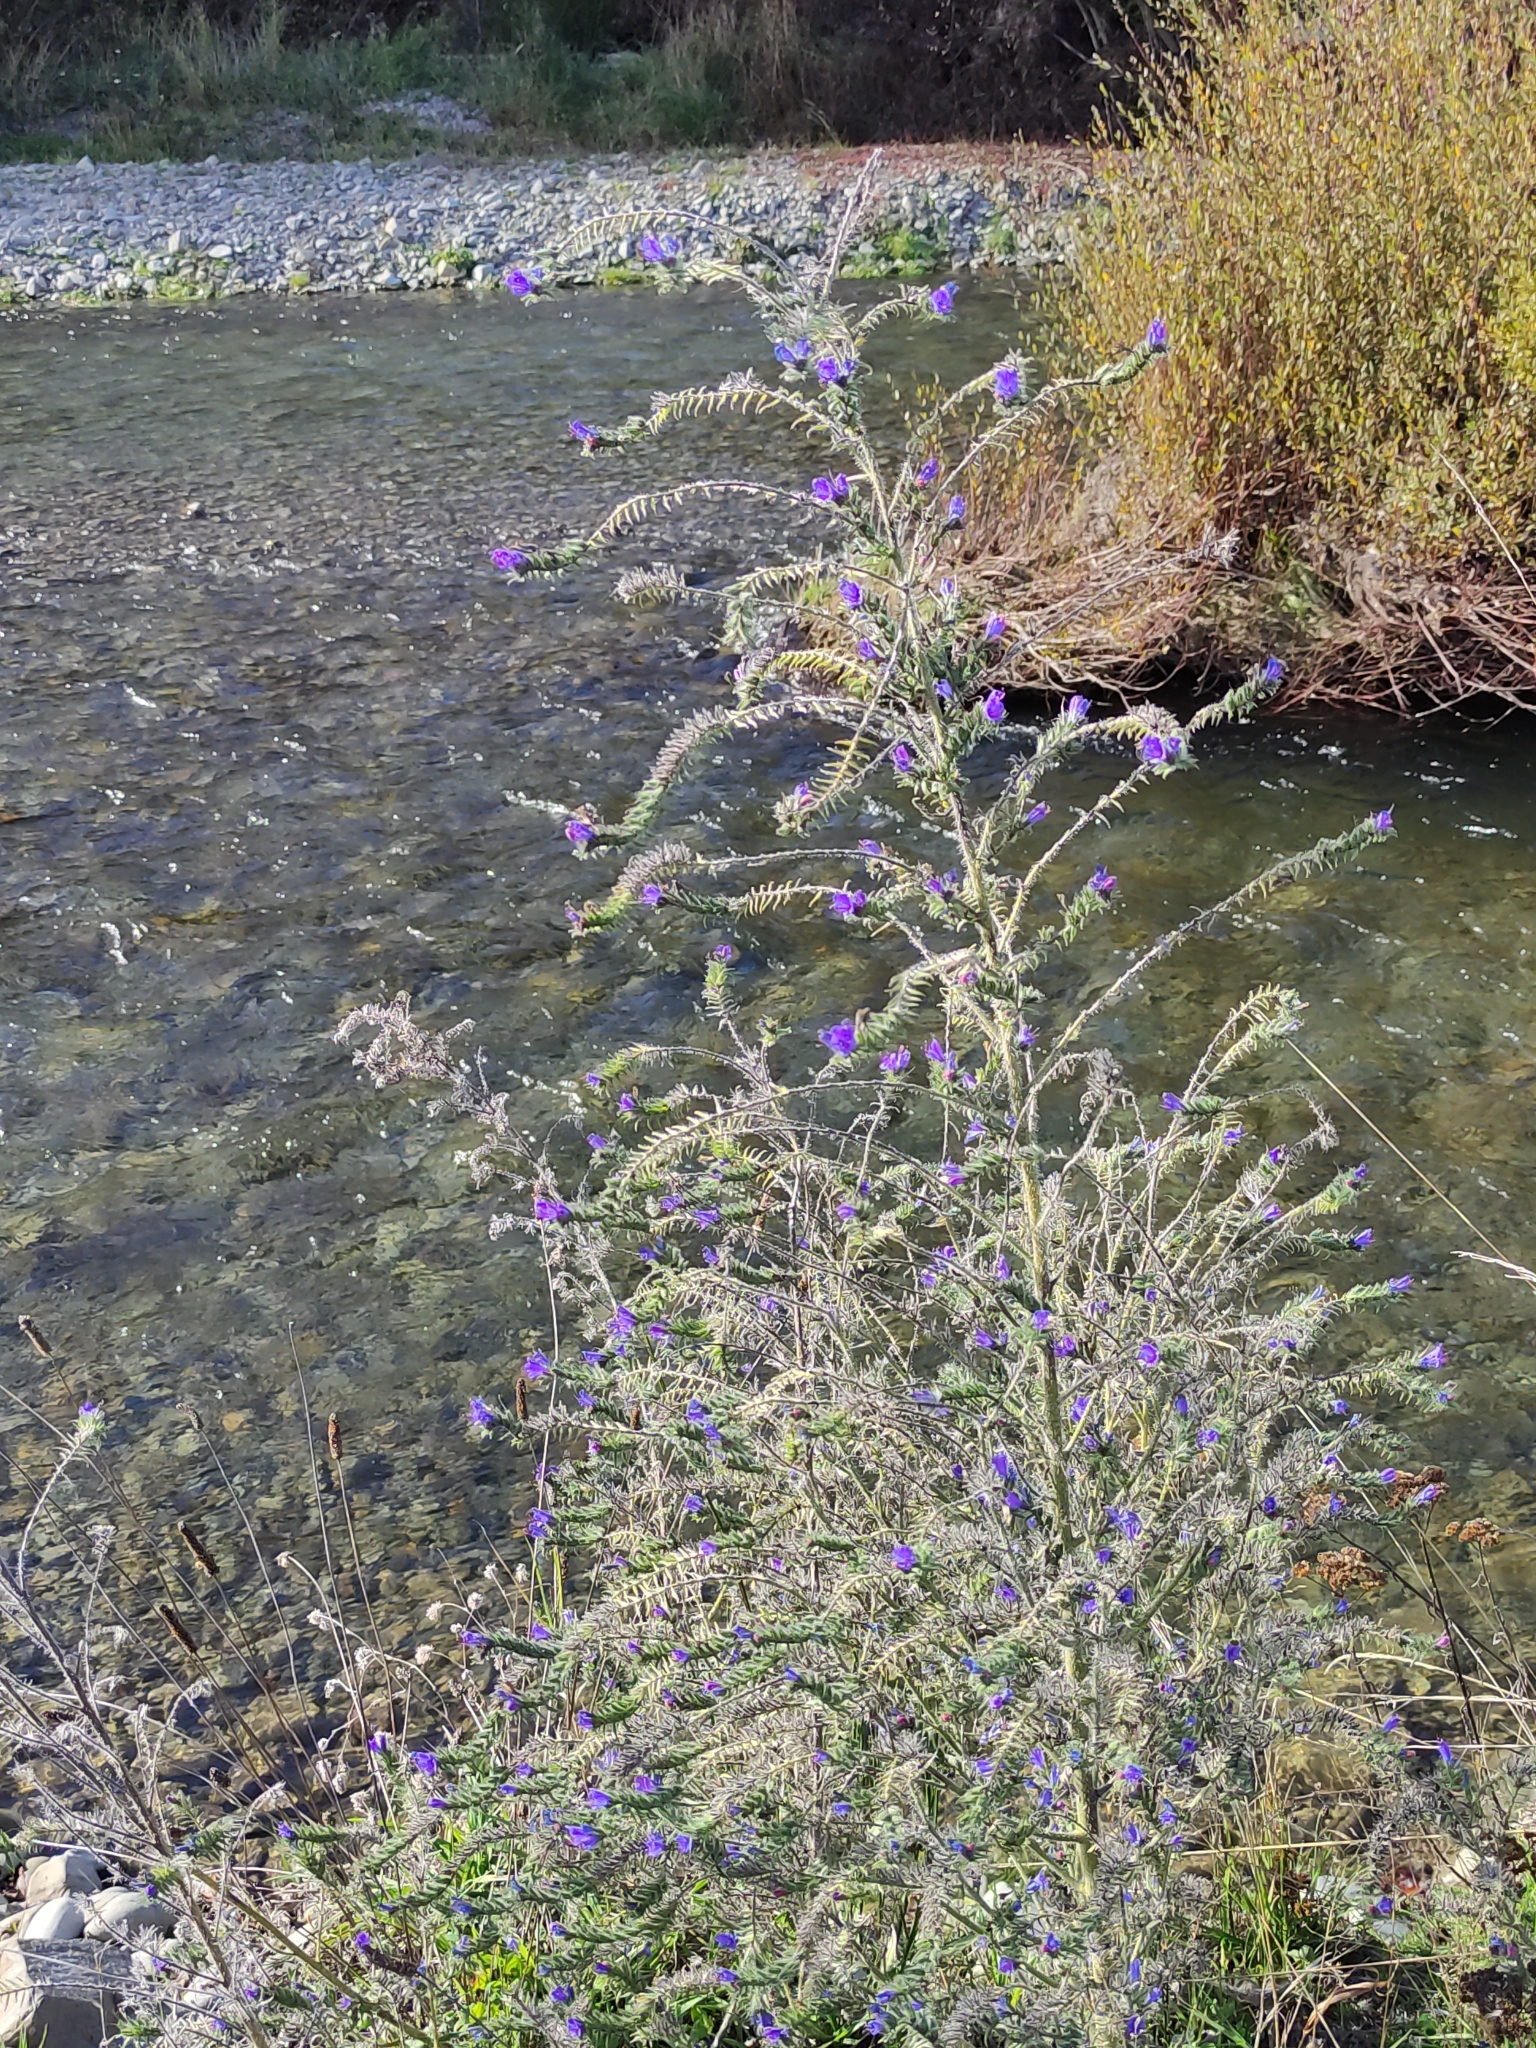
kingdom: Plantae
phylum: Tracheophyta
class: Magnoliopsida
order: Boraginales
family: Boraginaceae
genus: Echium
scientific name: Echium vulgare
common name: Common viper's bugloss
